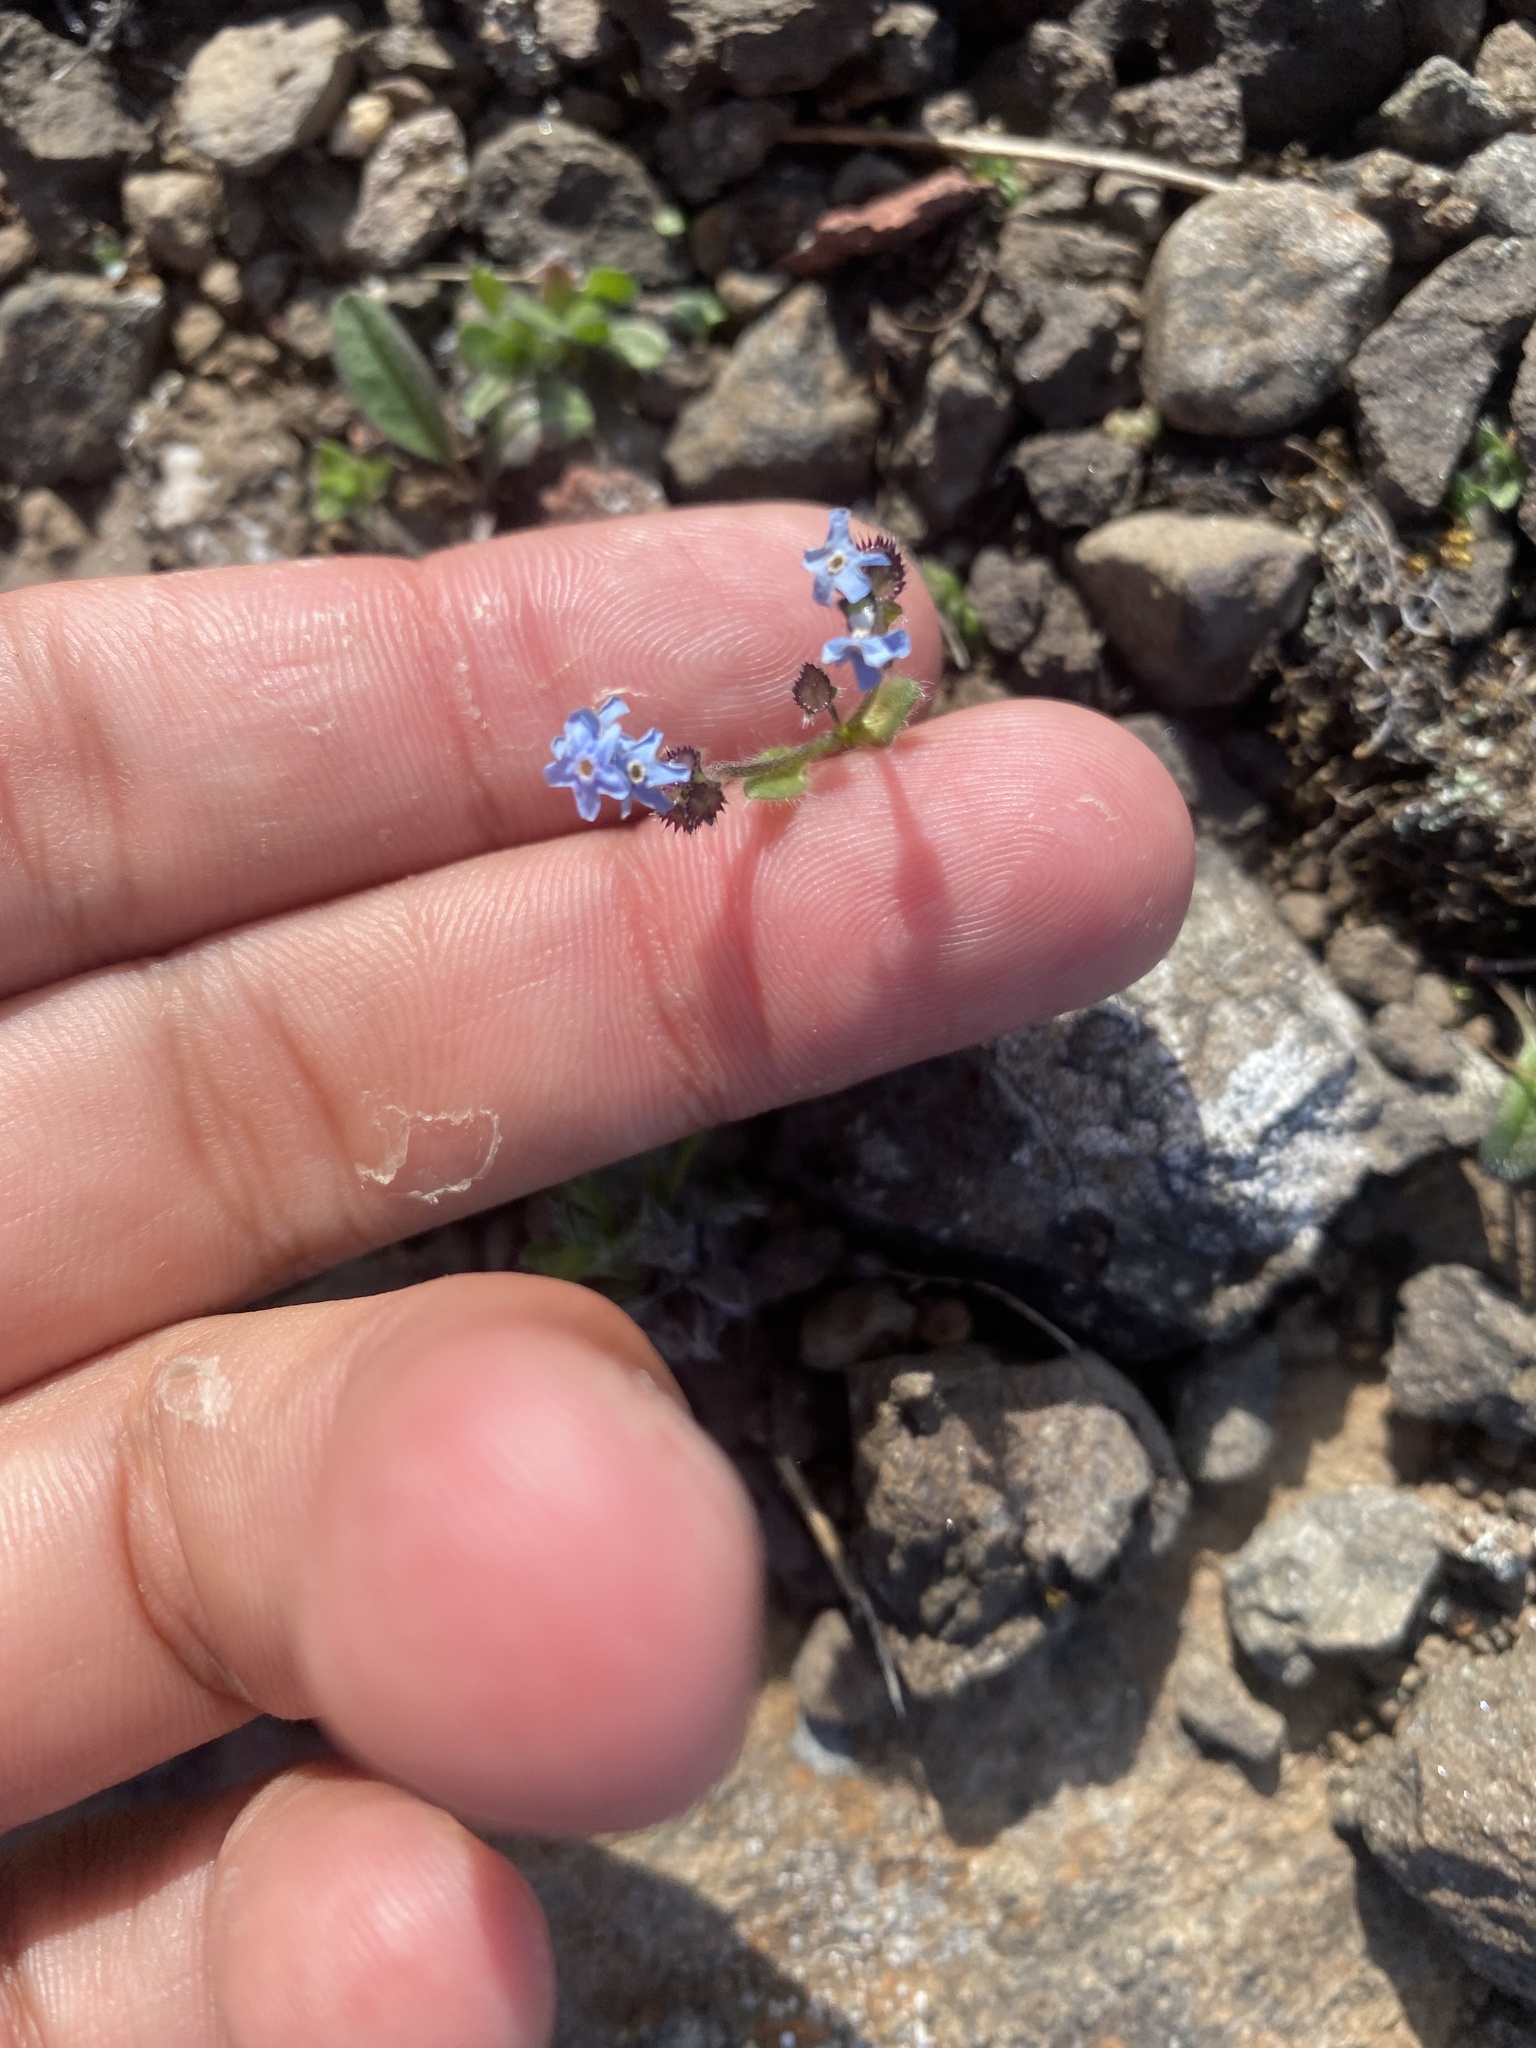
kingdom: Plantae
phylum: Tracheophyta
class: Magnoliopsida
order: Boraginales
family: Boraginaceae
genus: Eritrichium
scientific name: Eritrichium villosum
